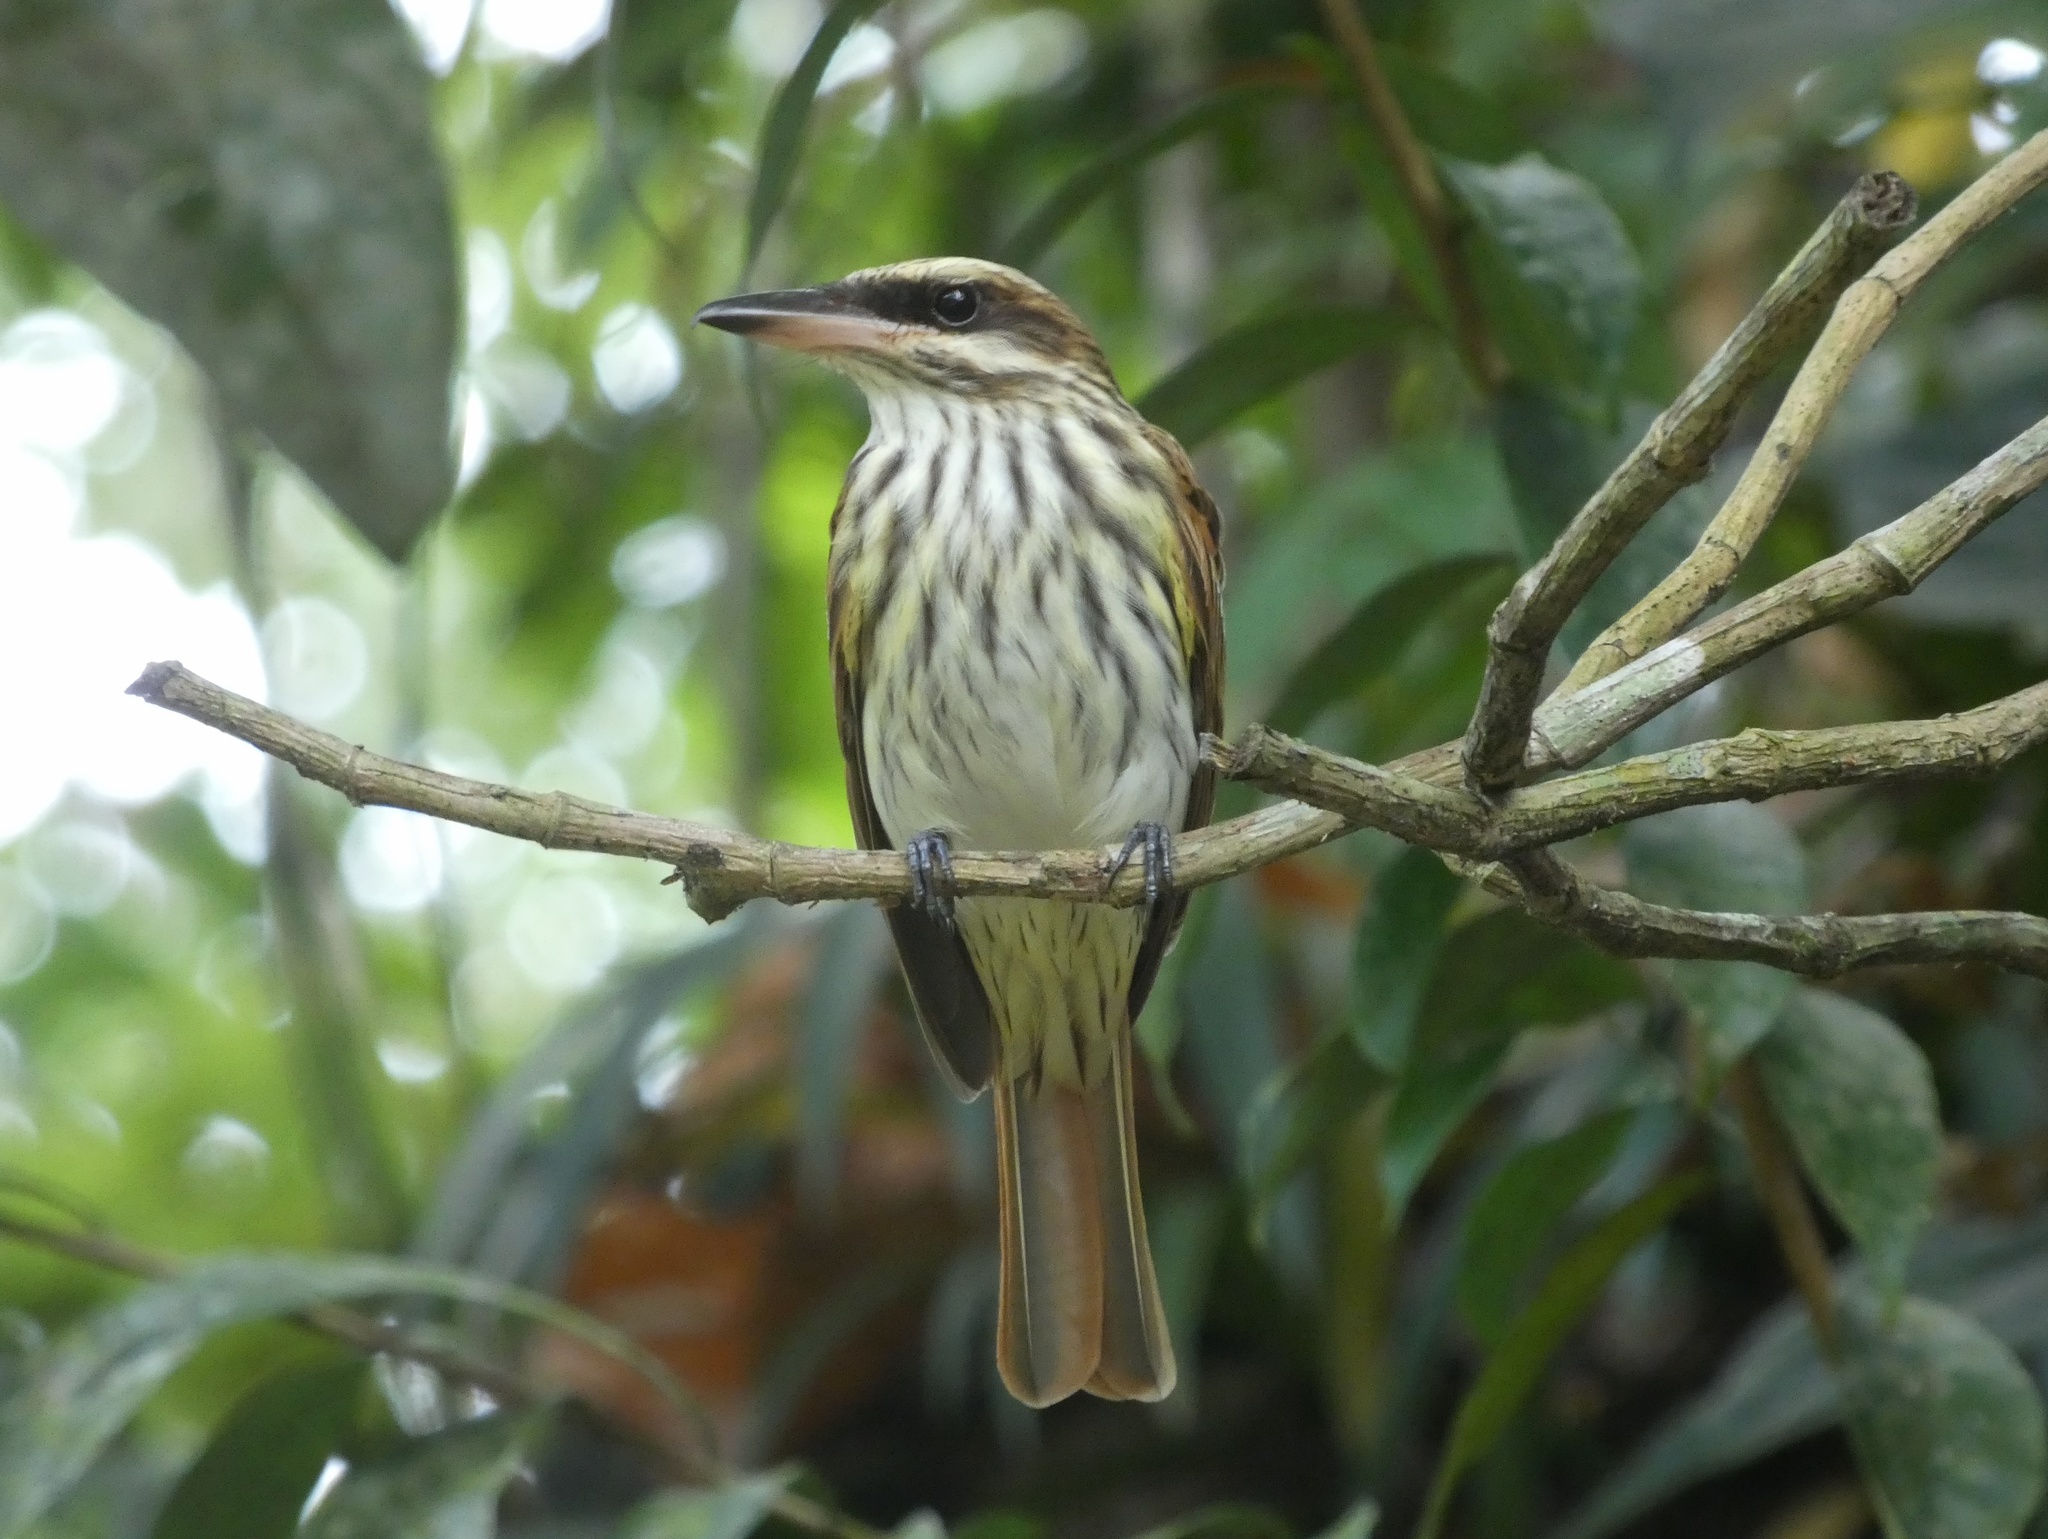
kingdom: Animalia
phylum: Chordata
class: Aves
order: Passeriformes
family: Tyrannidae
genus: Myiodynastes
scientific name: Myiodynastes maculatus
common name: Streaked flycatcher
